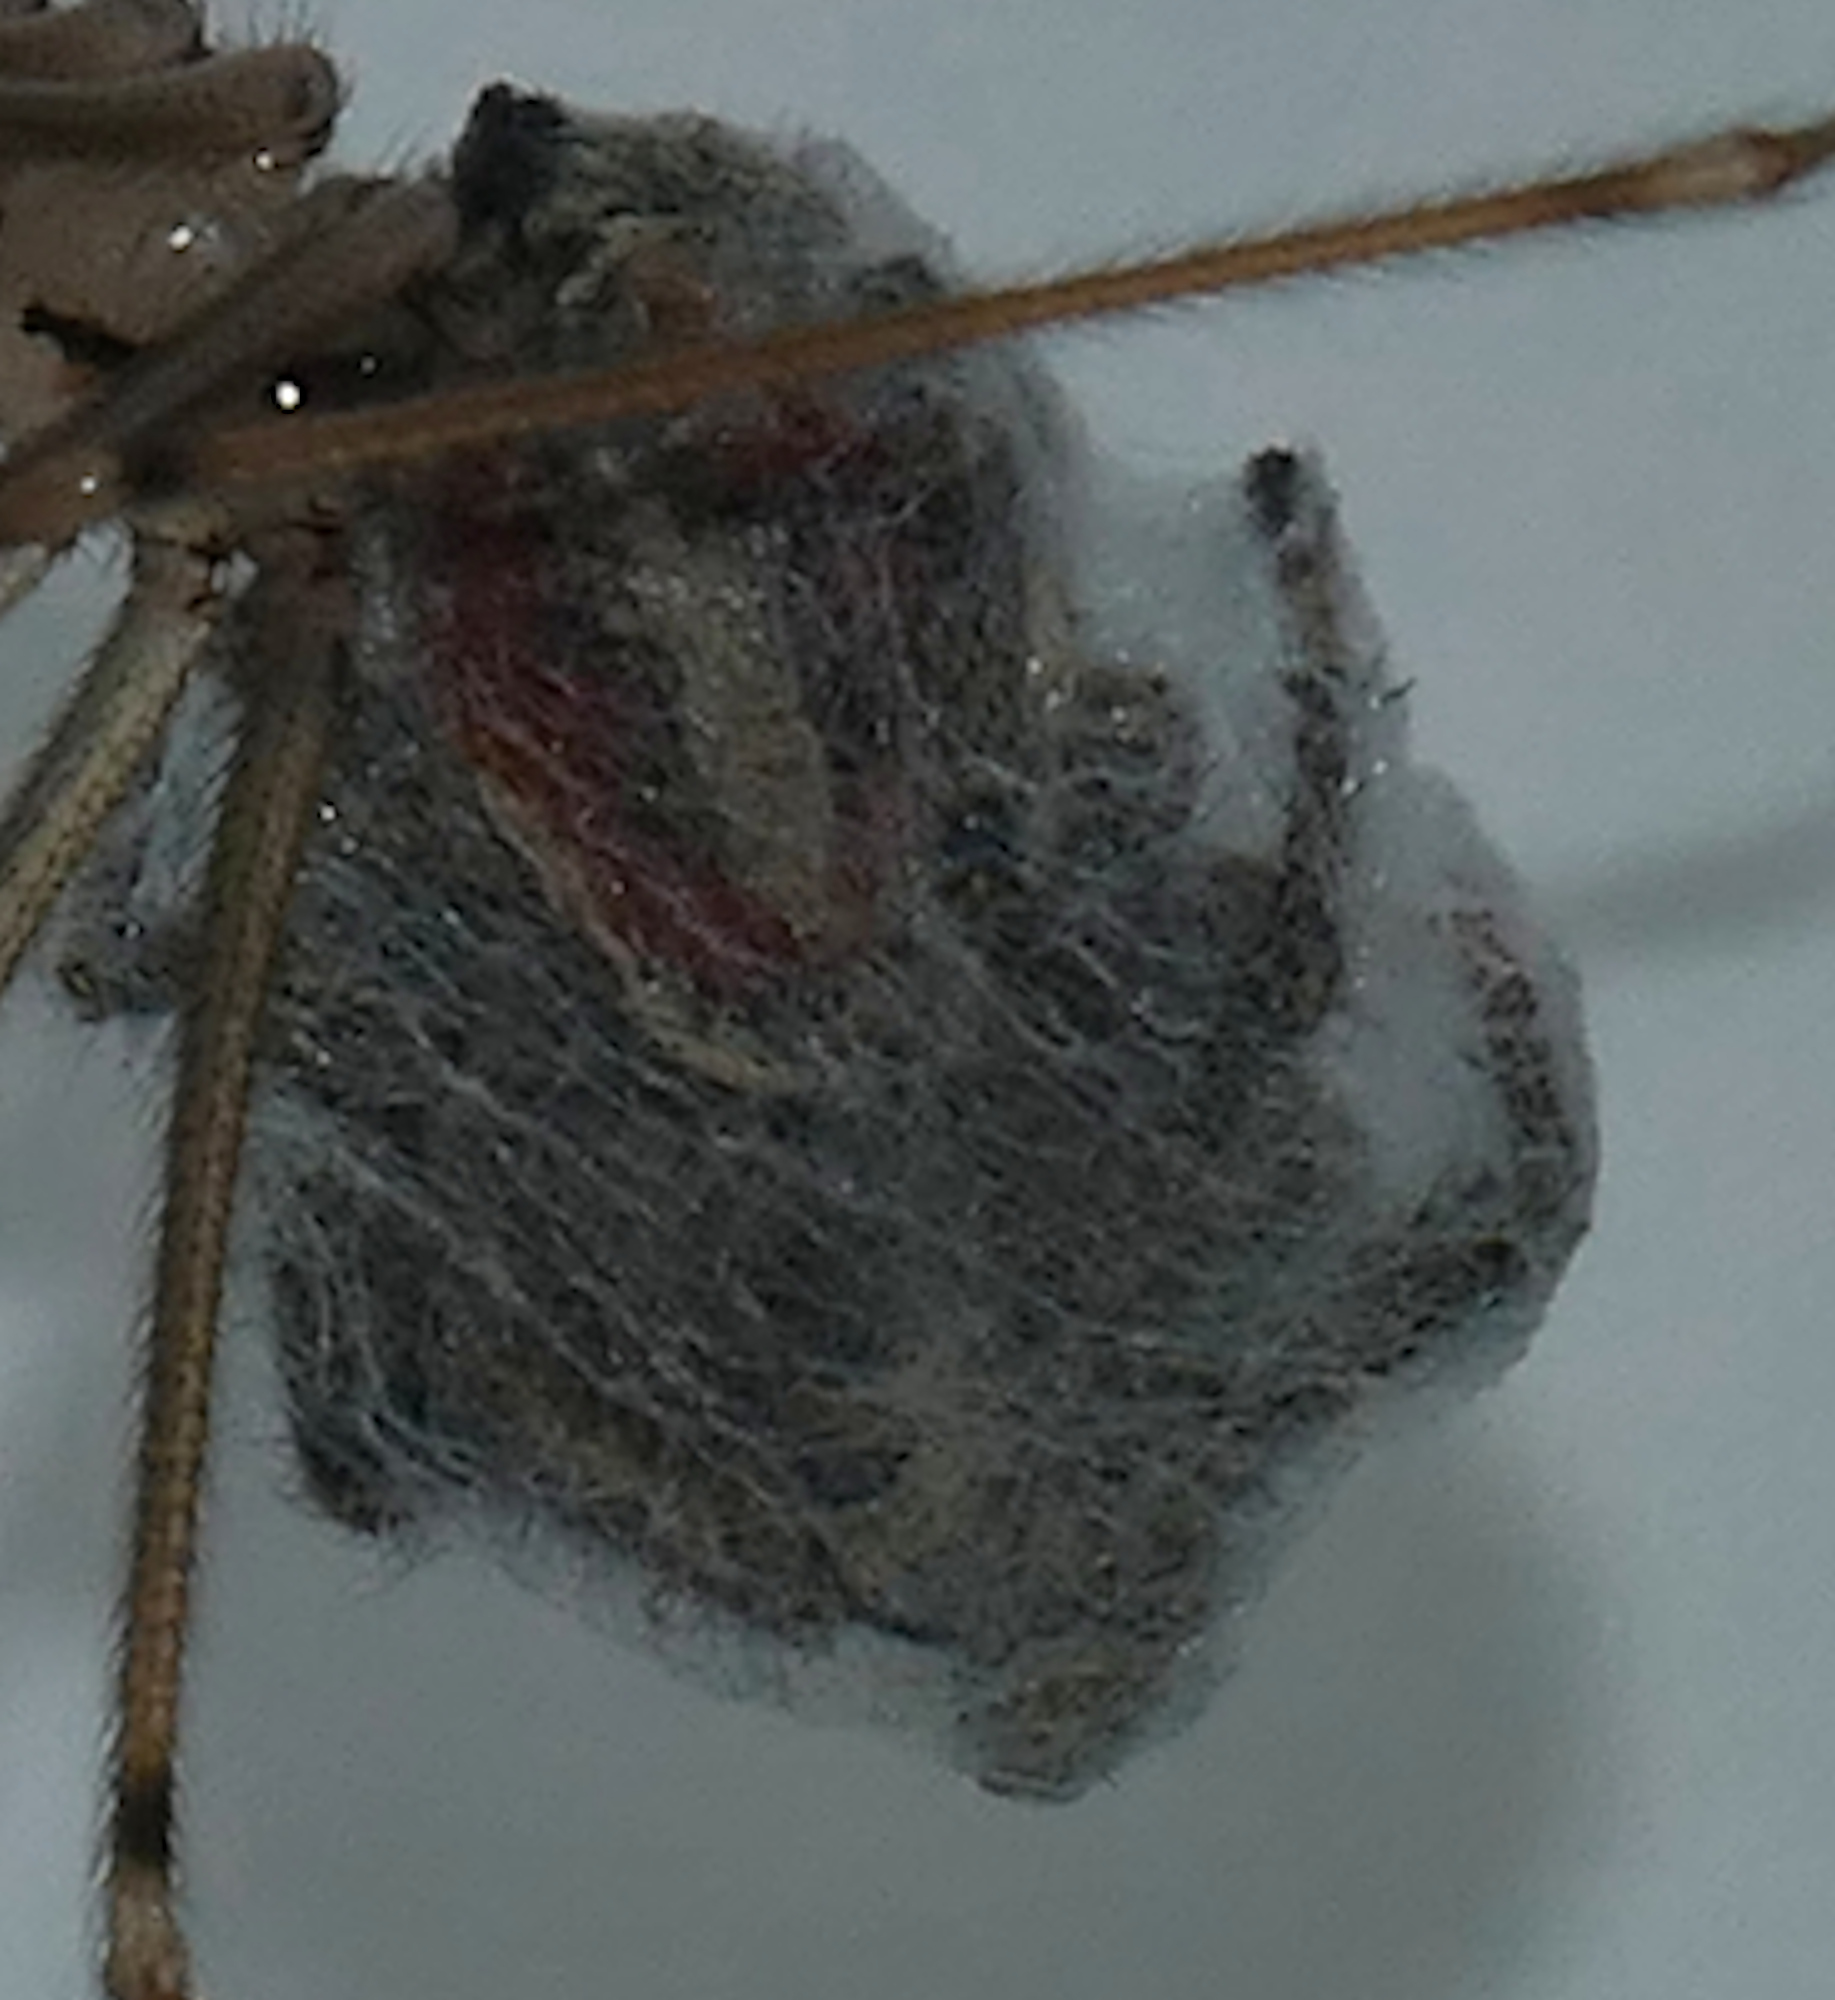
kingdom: Animalia
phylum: Arthropoda
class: Arachnida
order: Araneae
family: Salticidae
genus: Phidippus
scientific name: Phidippus vexans
